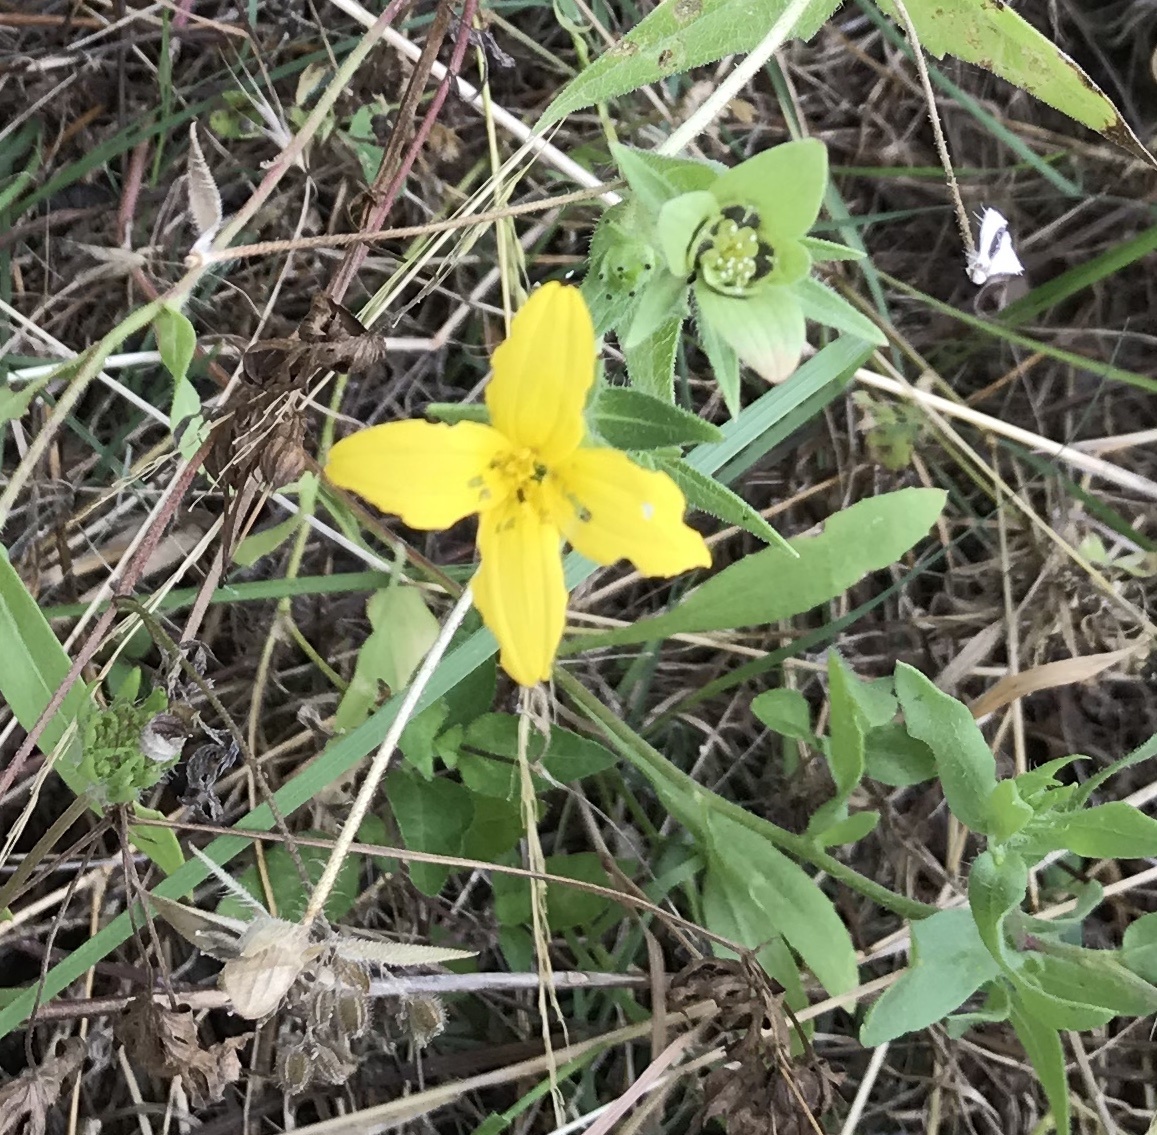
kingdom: Plantae
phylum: Tracheophyta
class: Magnoliopsida
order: Asterales
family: Asteraceae
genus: Lindheimera
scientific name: Lindheimera texana
